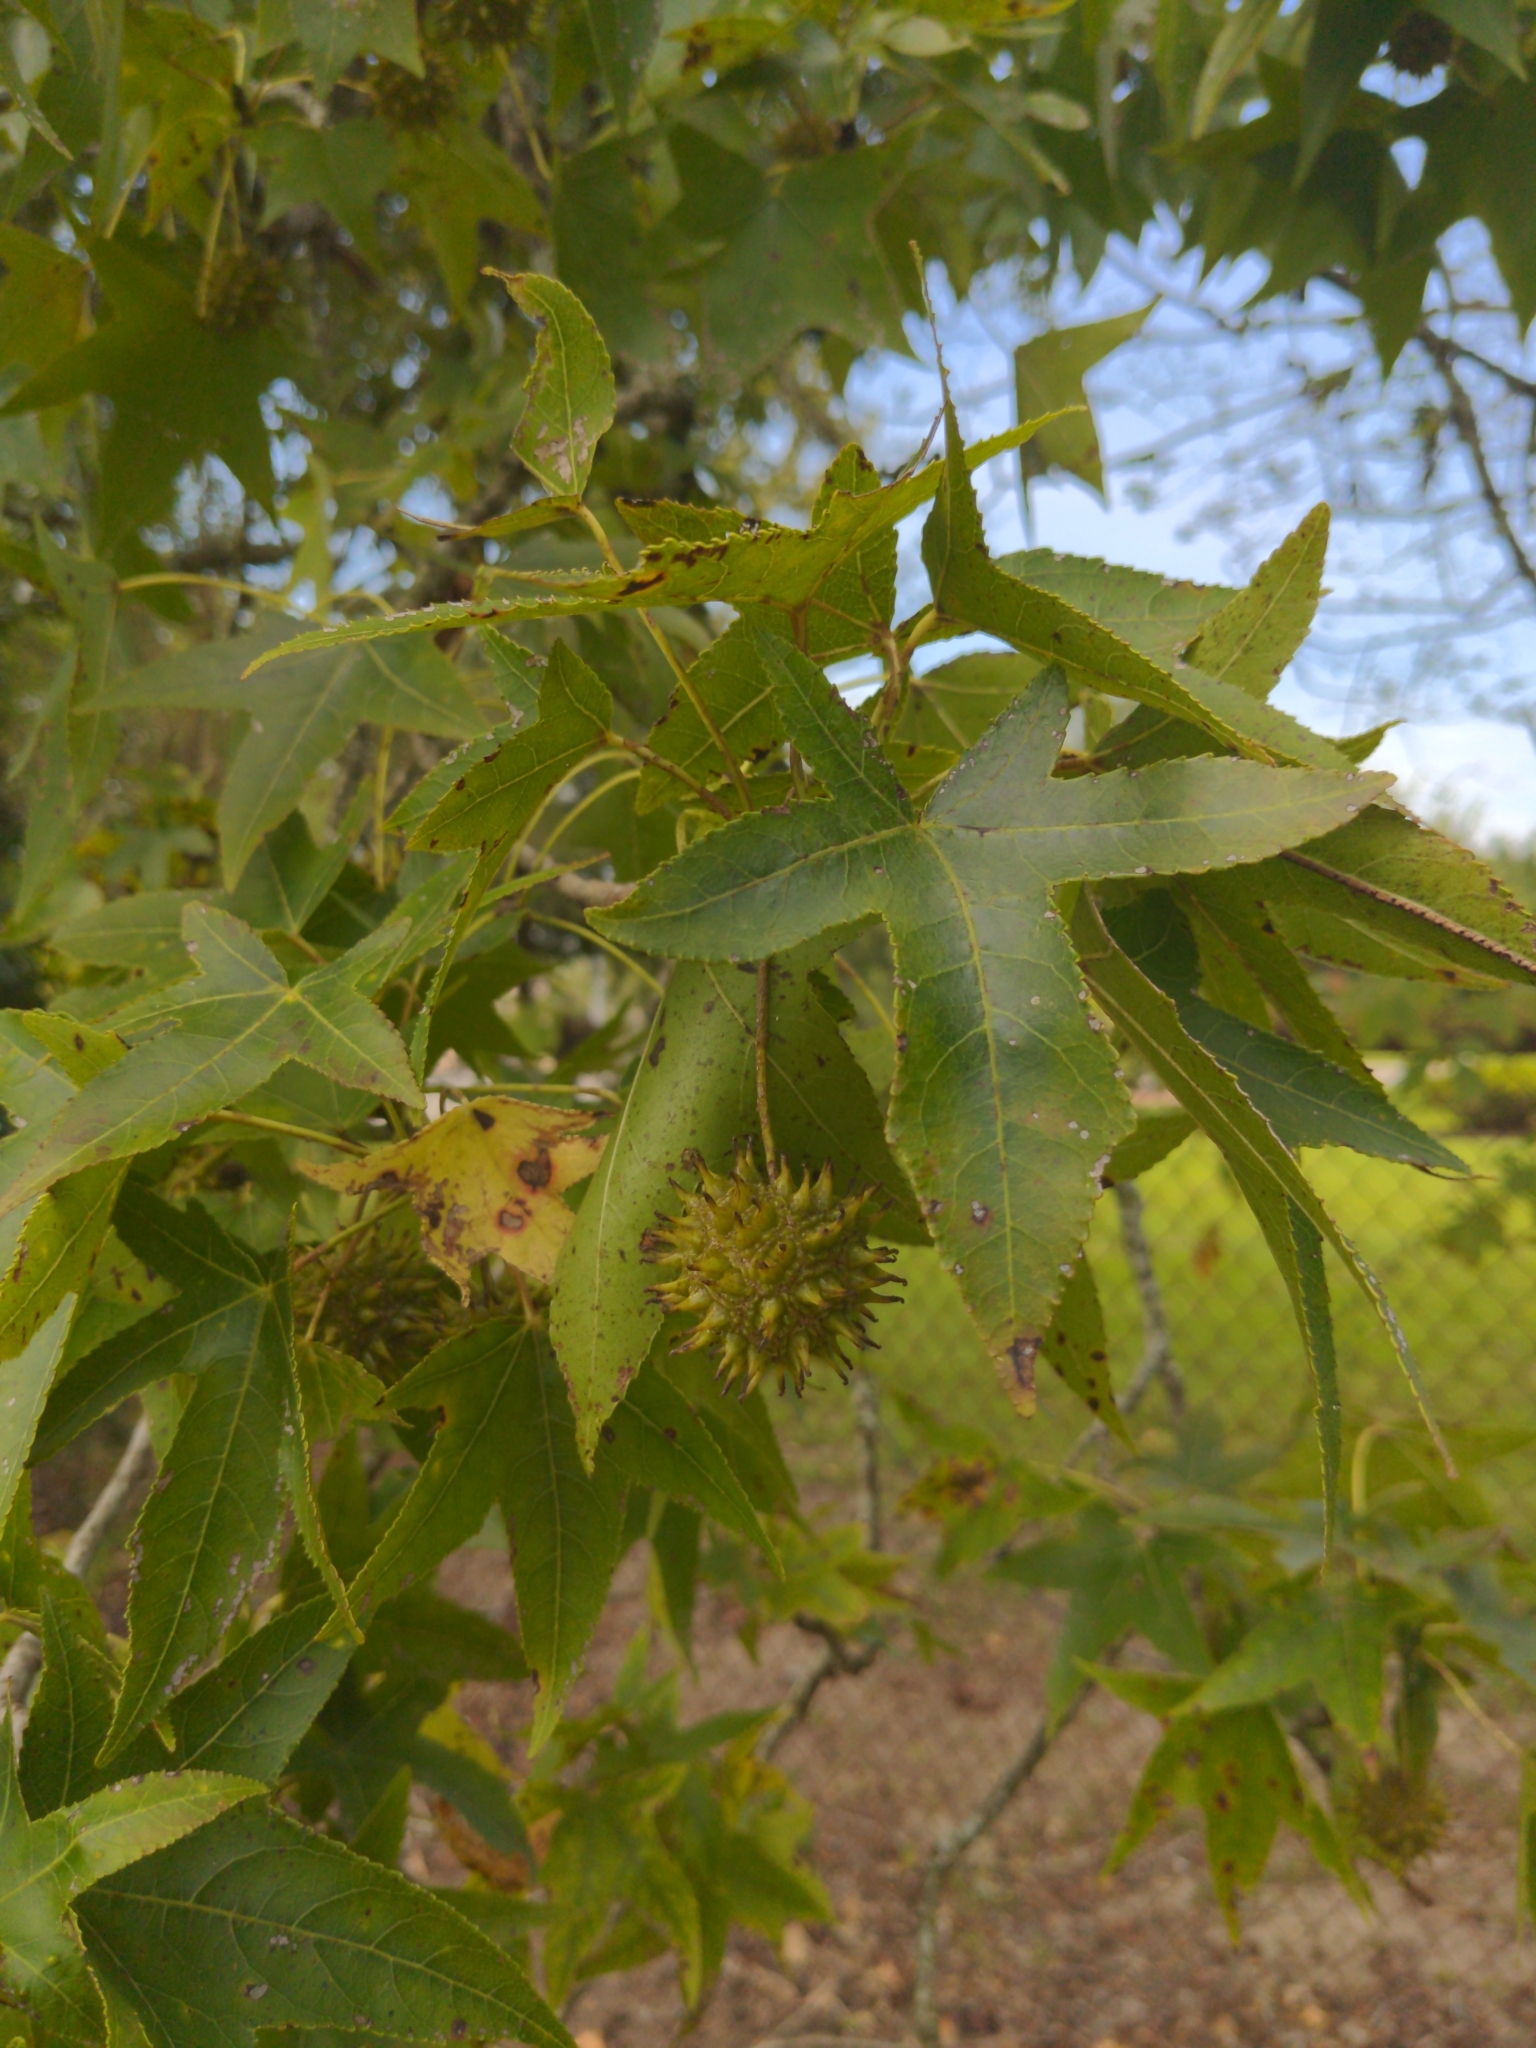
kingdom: Plantae
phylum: Tracheophyta
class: Magnoliopsida
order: Saxifragales
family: Altingiaceae
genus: Liquidambar
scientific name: Liquidambar styraciflua
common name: Sweet gum
